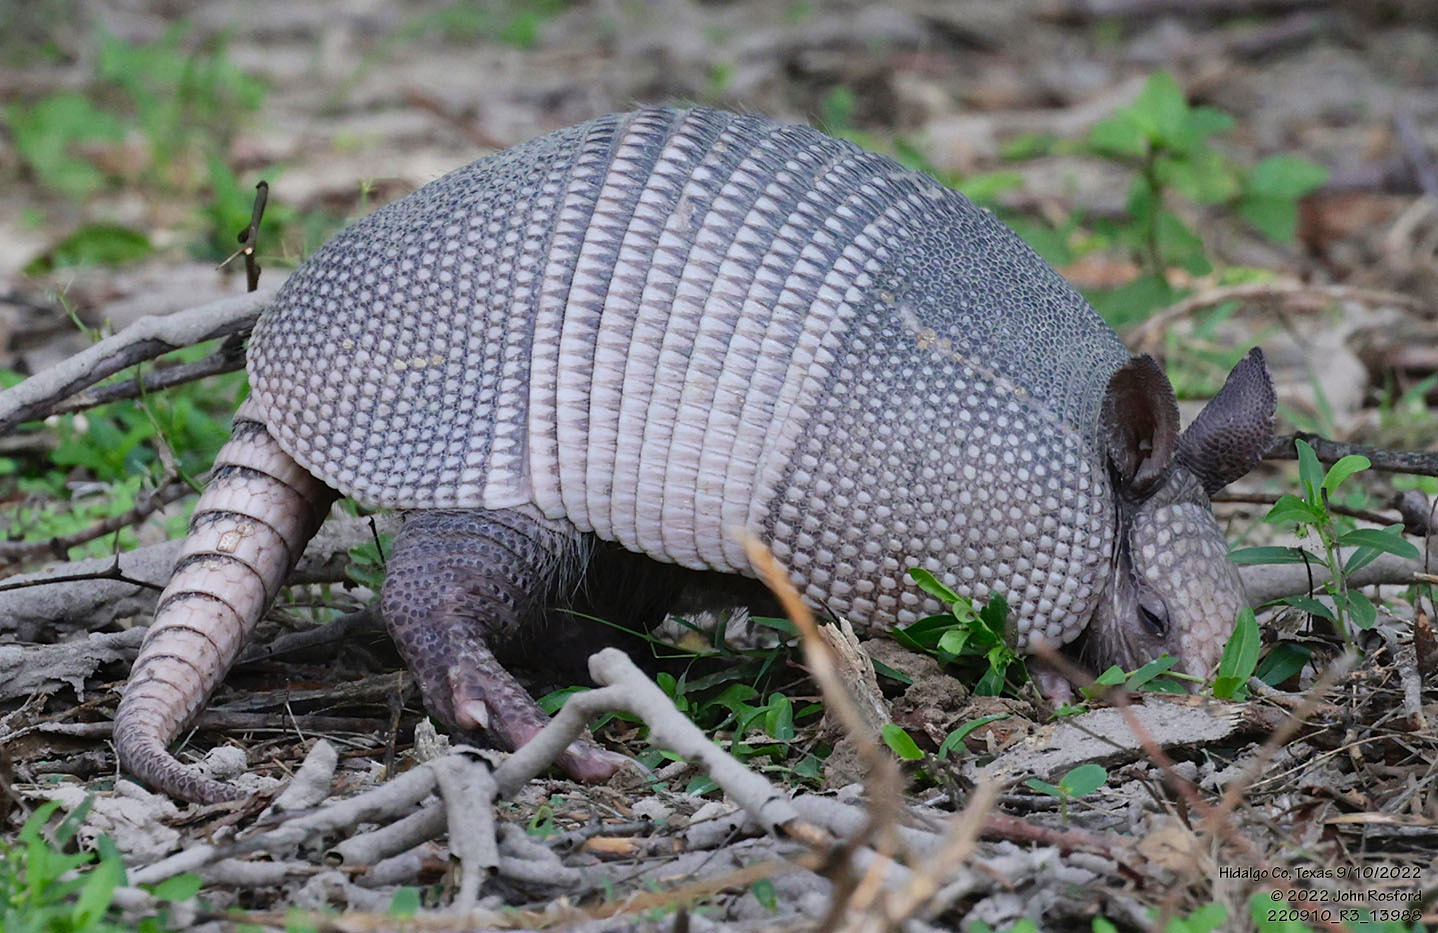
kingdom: Animalia
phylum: Chordata
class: Mammalia
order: Cingulata
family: Dasypodidae
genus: Dasypus
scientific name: Dasypus novemcinctus
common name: Nine-banded armadillo
